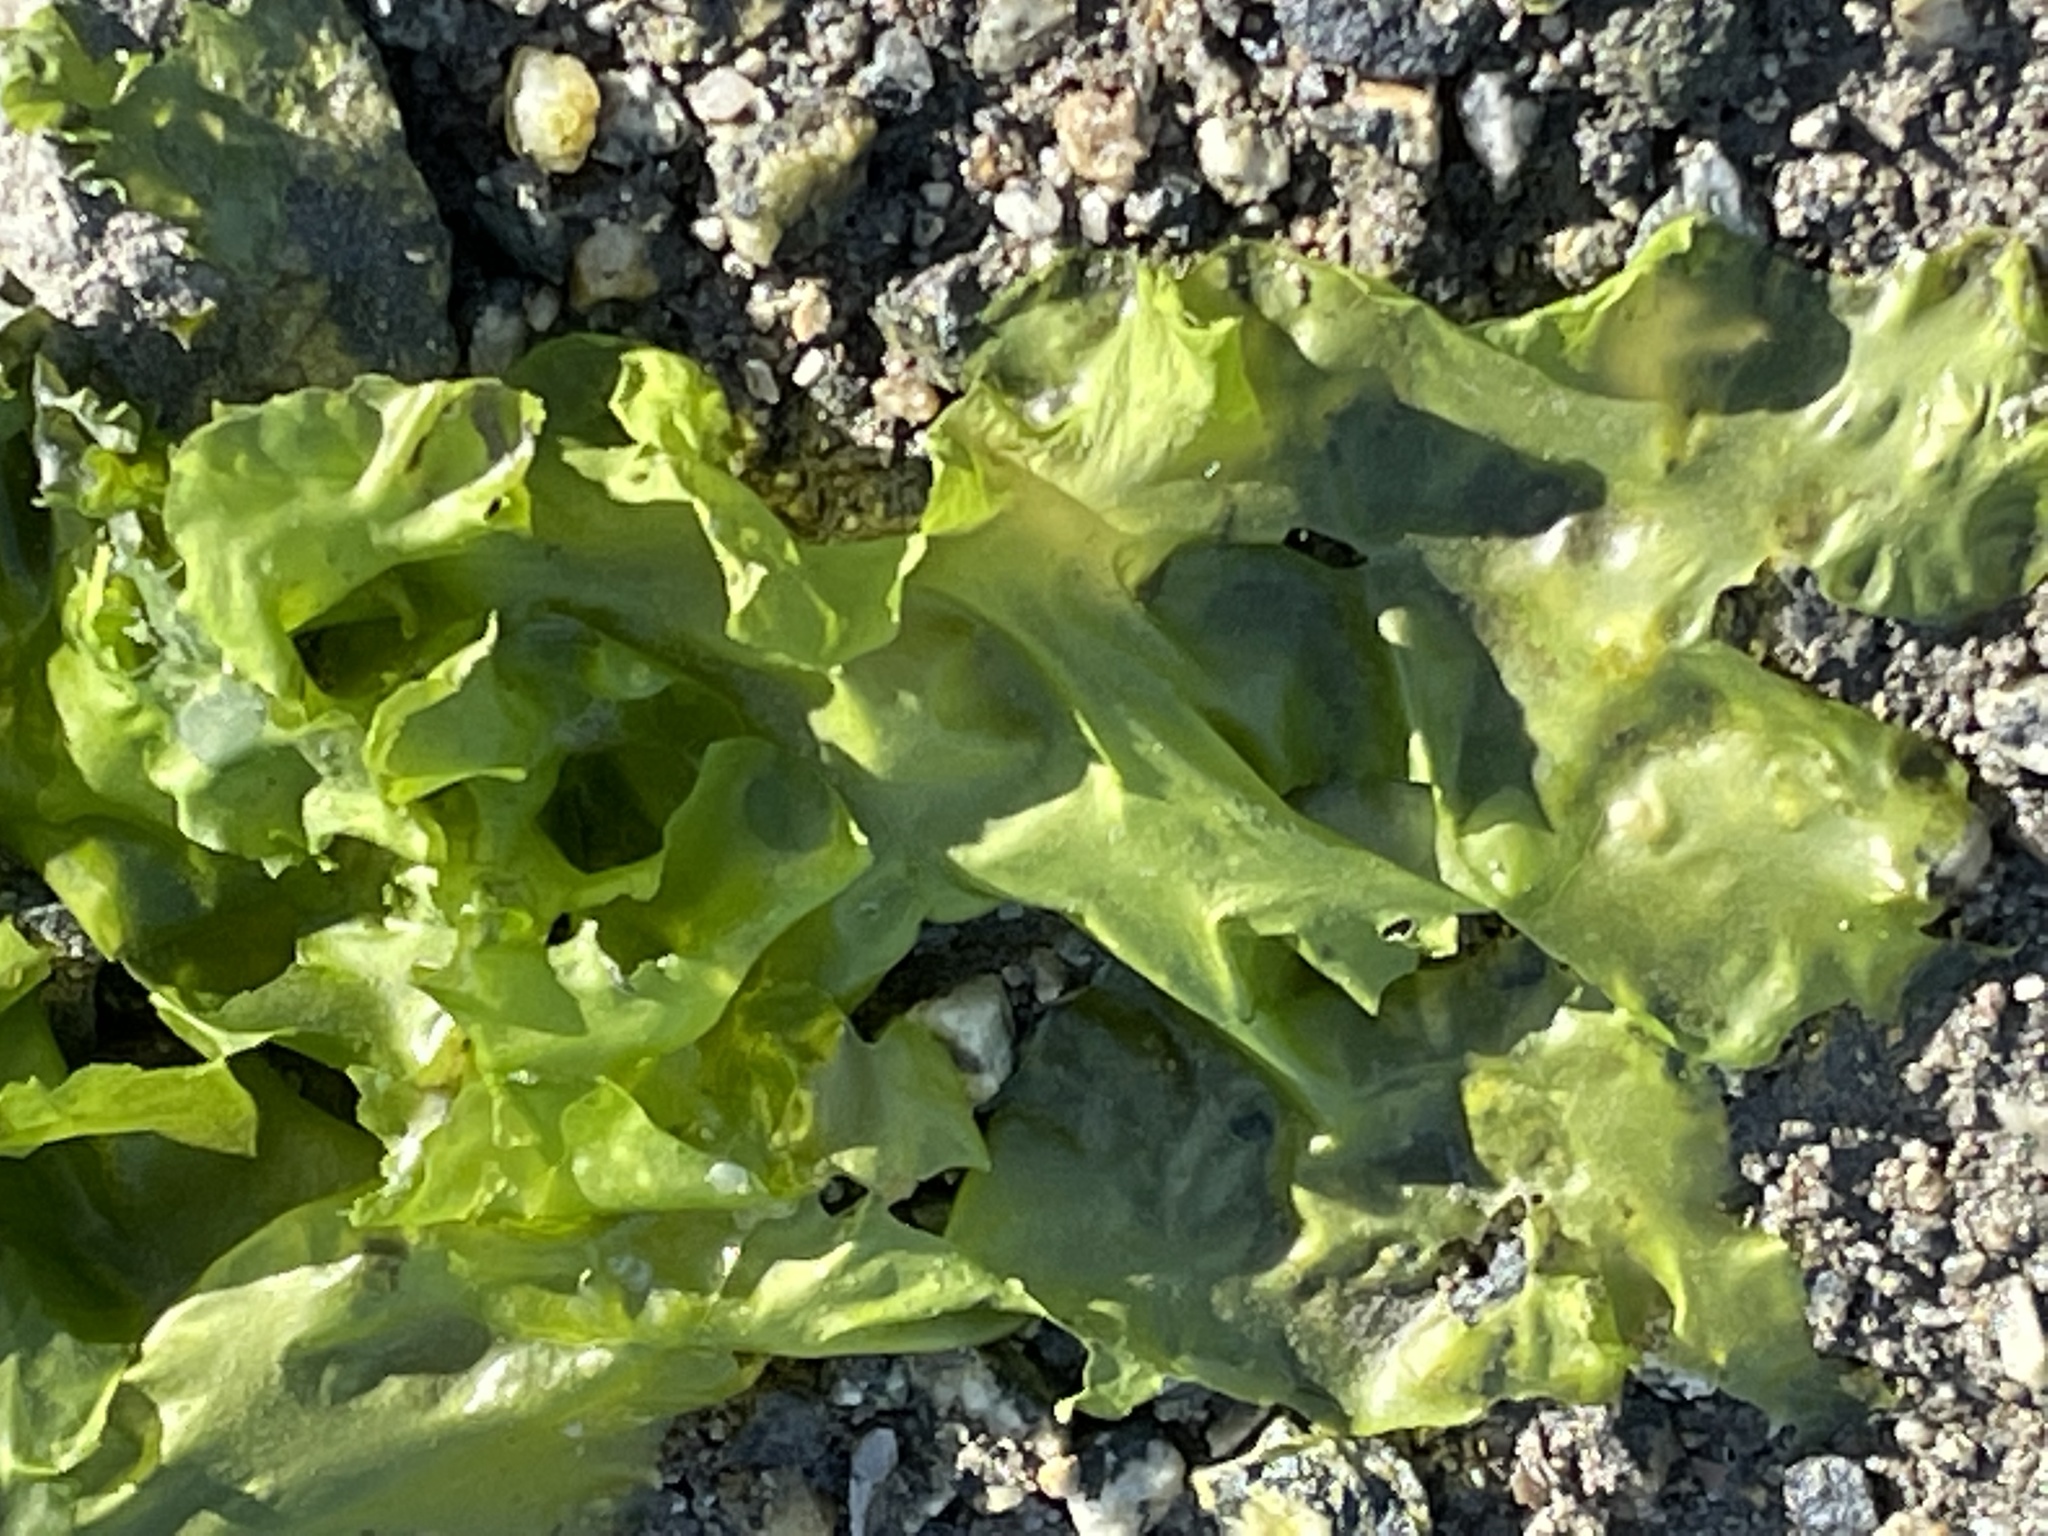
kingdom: Plantae
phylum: Chlorophyta
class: Ulvophyceae
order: Ulvales
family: Ulvaceae
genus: Ulva
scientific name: Ulva lactuca
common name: Sea lettuce
